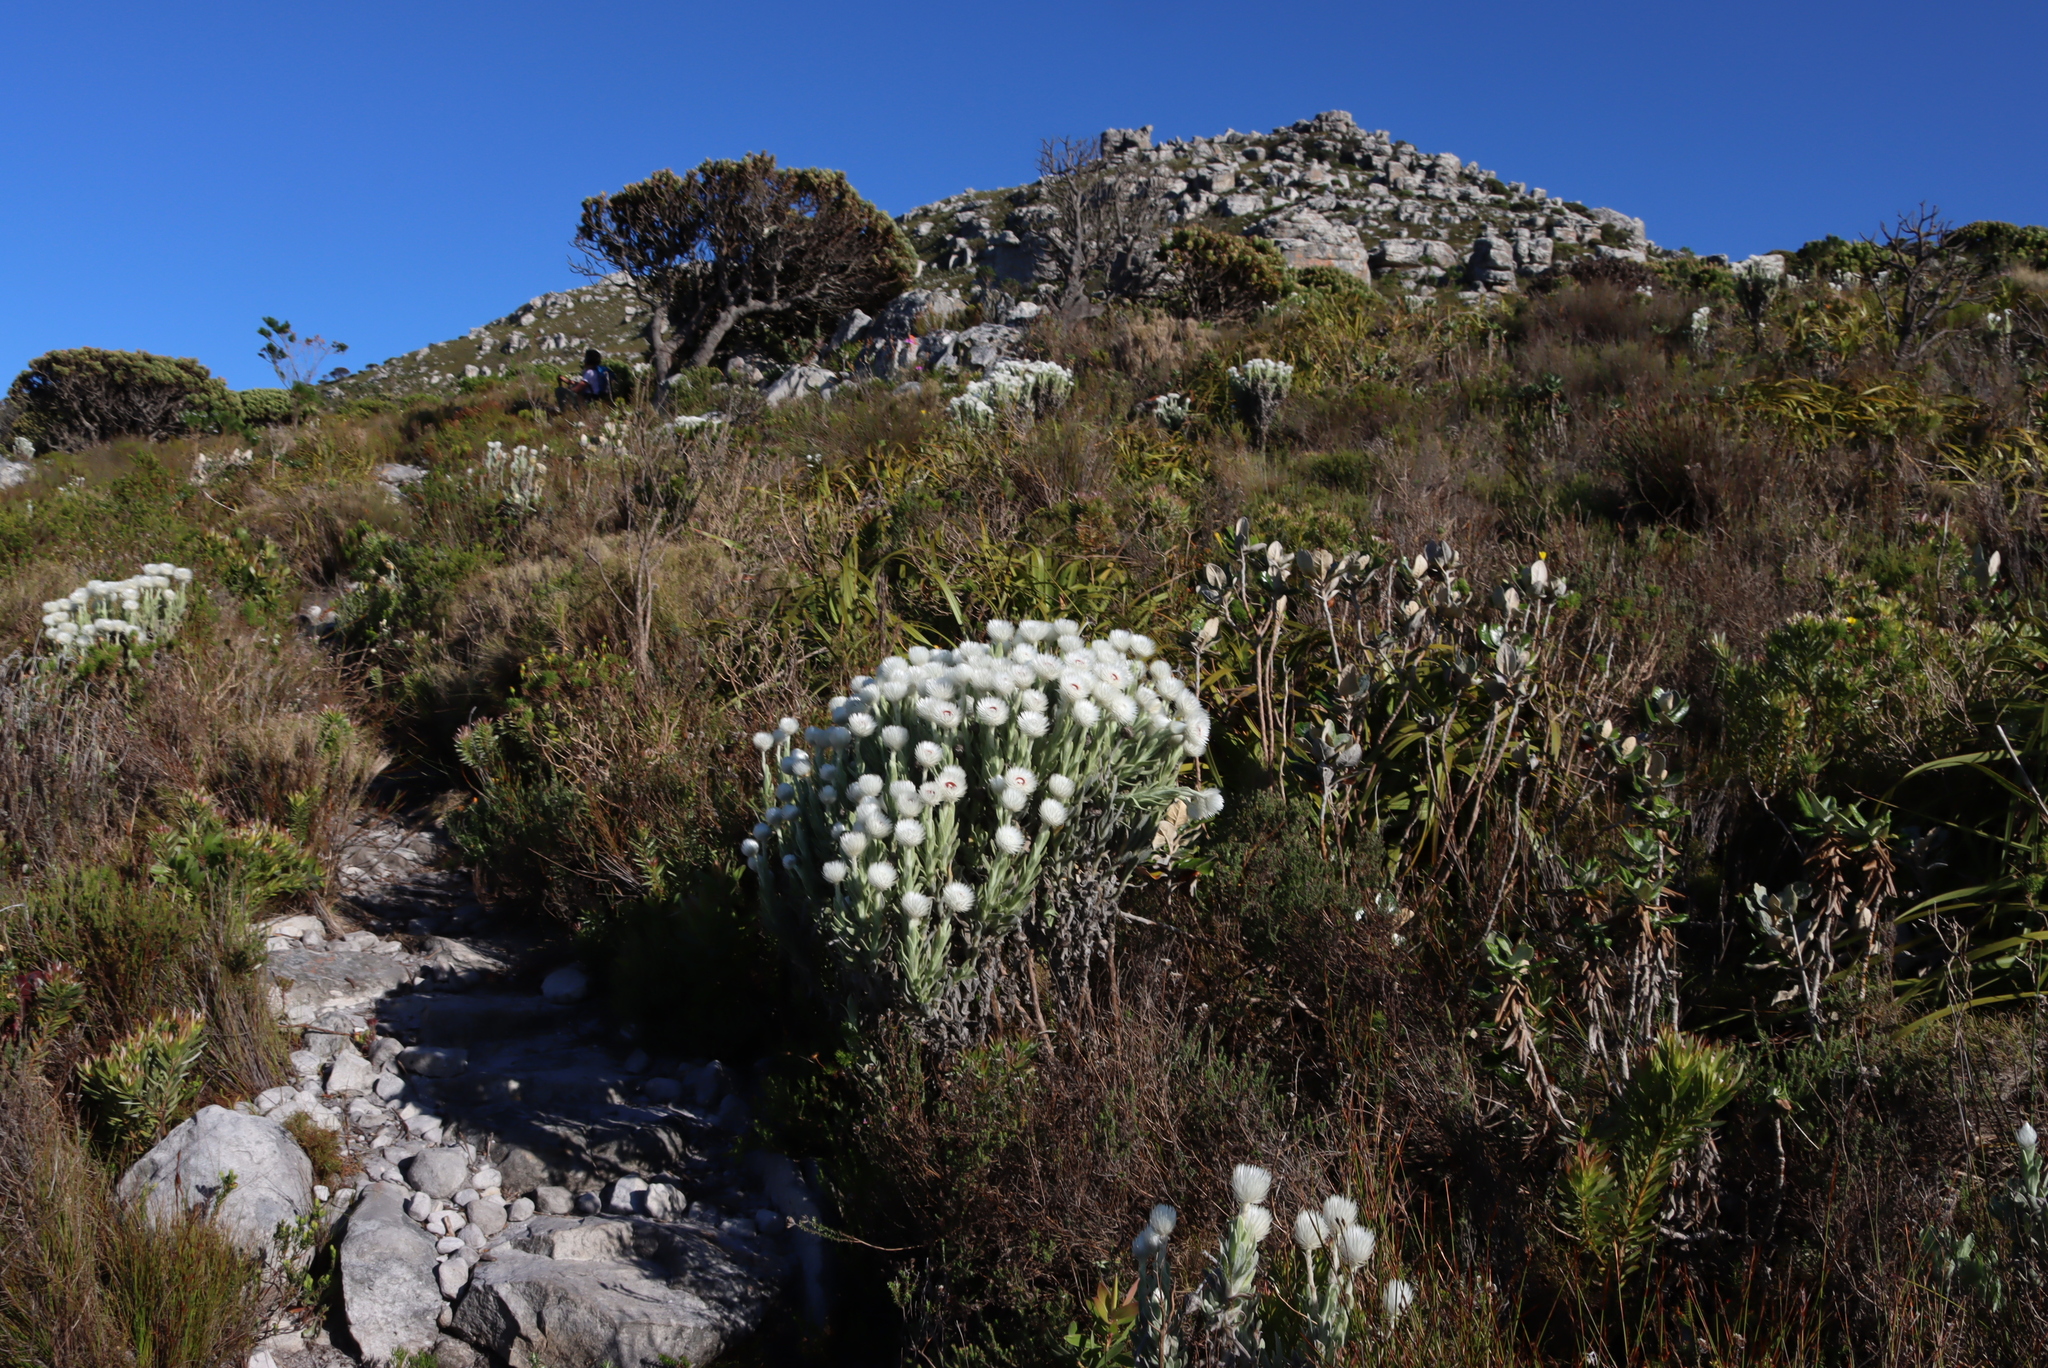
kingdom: Plantae
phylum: Tracheophyta
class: Magnoliopsida
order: Asterales
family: Asteraceae
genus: Syncarpha
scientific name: Syncarpha vestita
